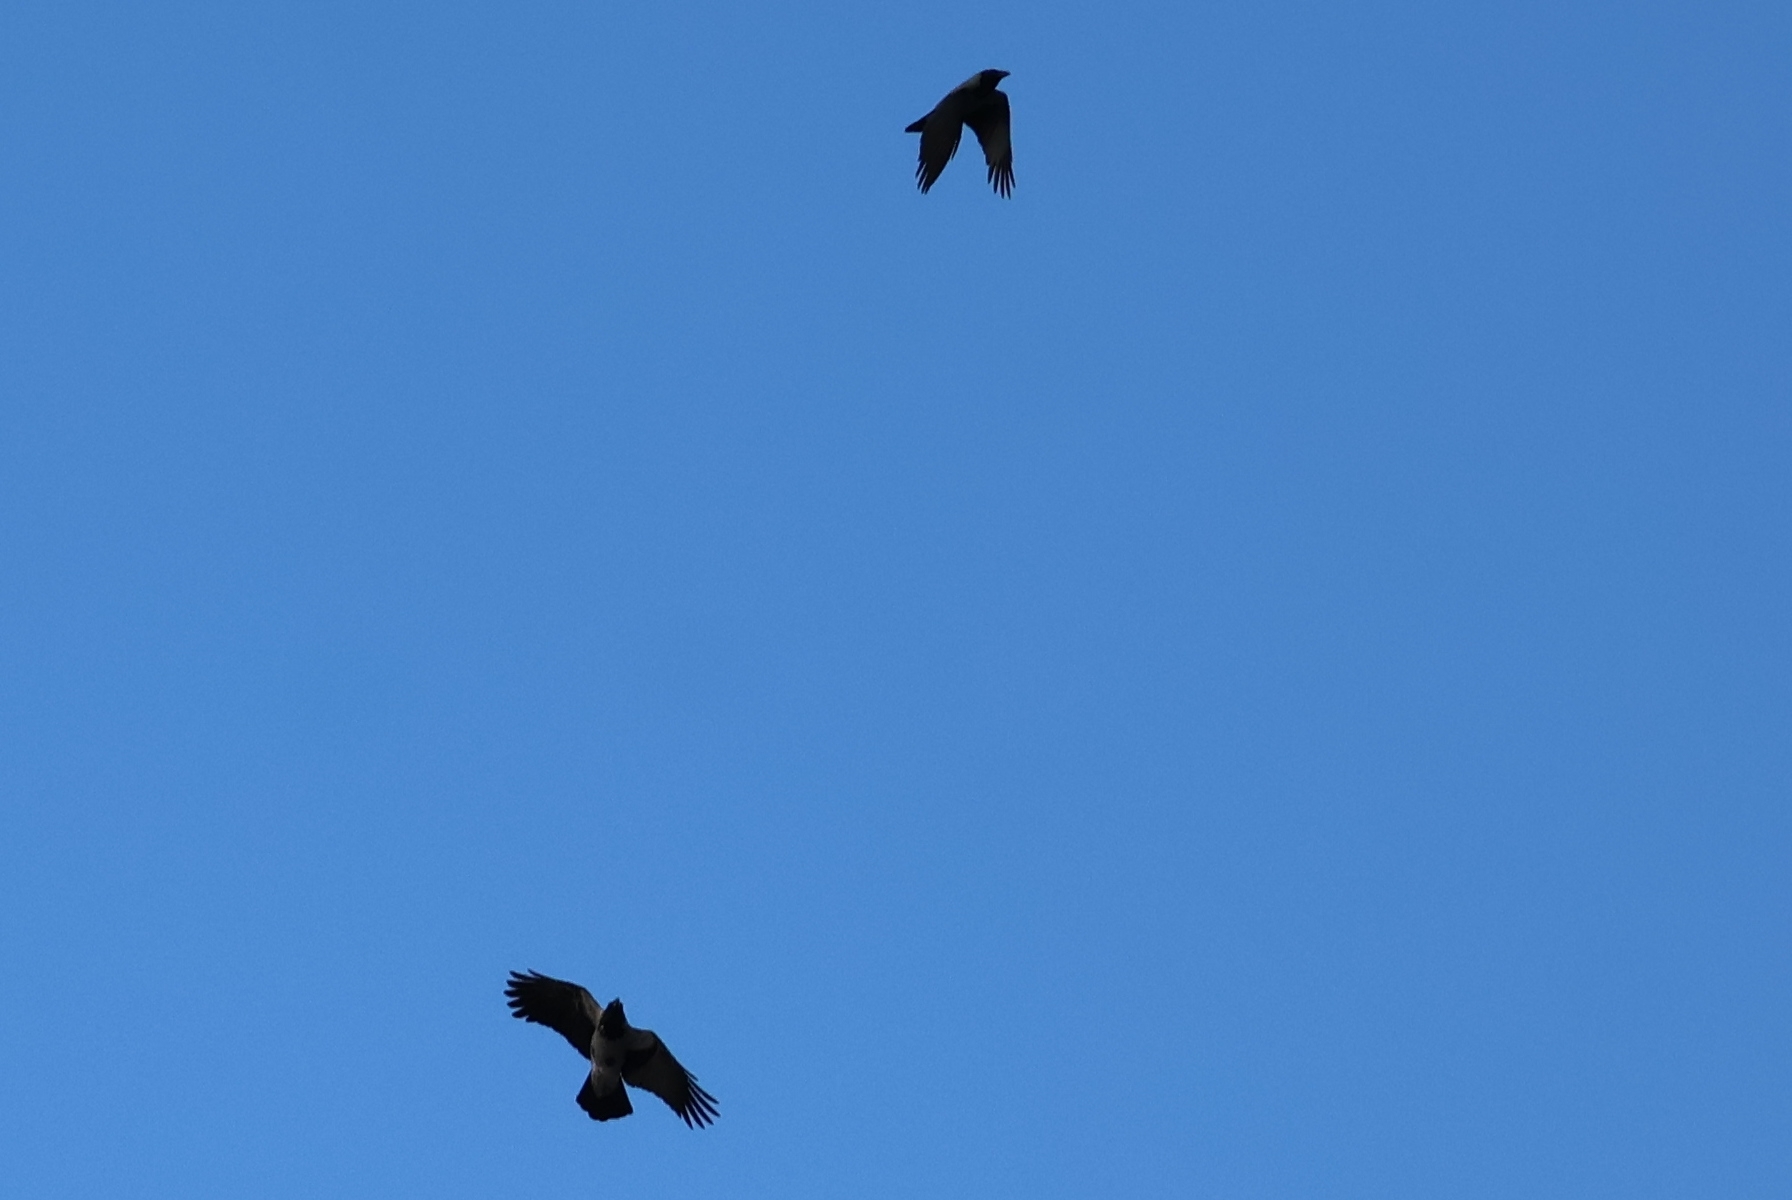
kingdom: Animalia
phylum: Chordata
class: Aves
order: Passeriformes
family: Corvidae
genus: Corvus
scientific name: Corvus cornix
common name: Hooded crow
